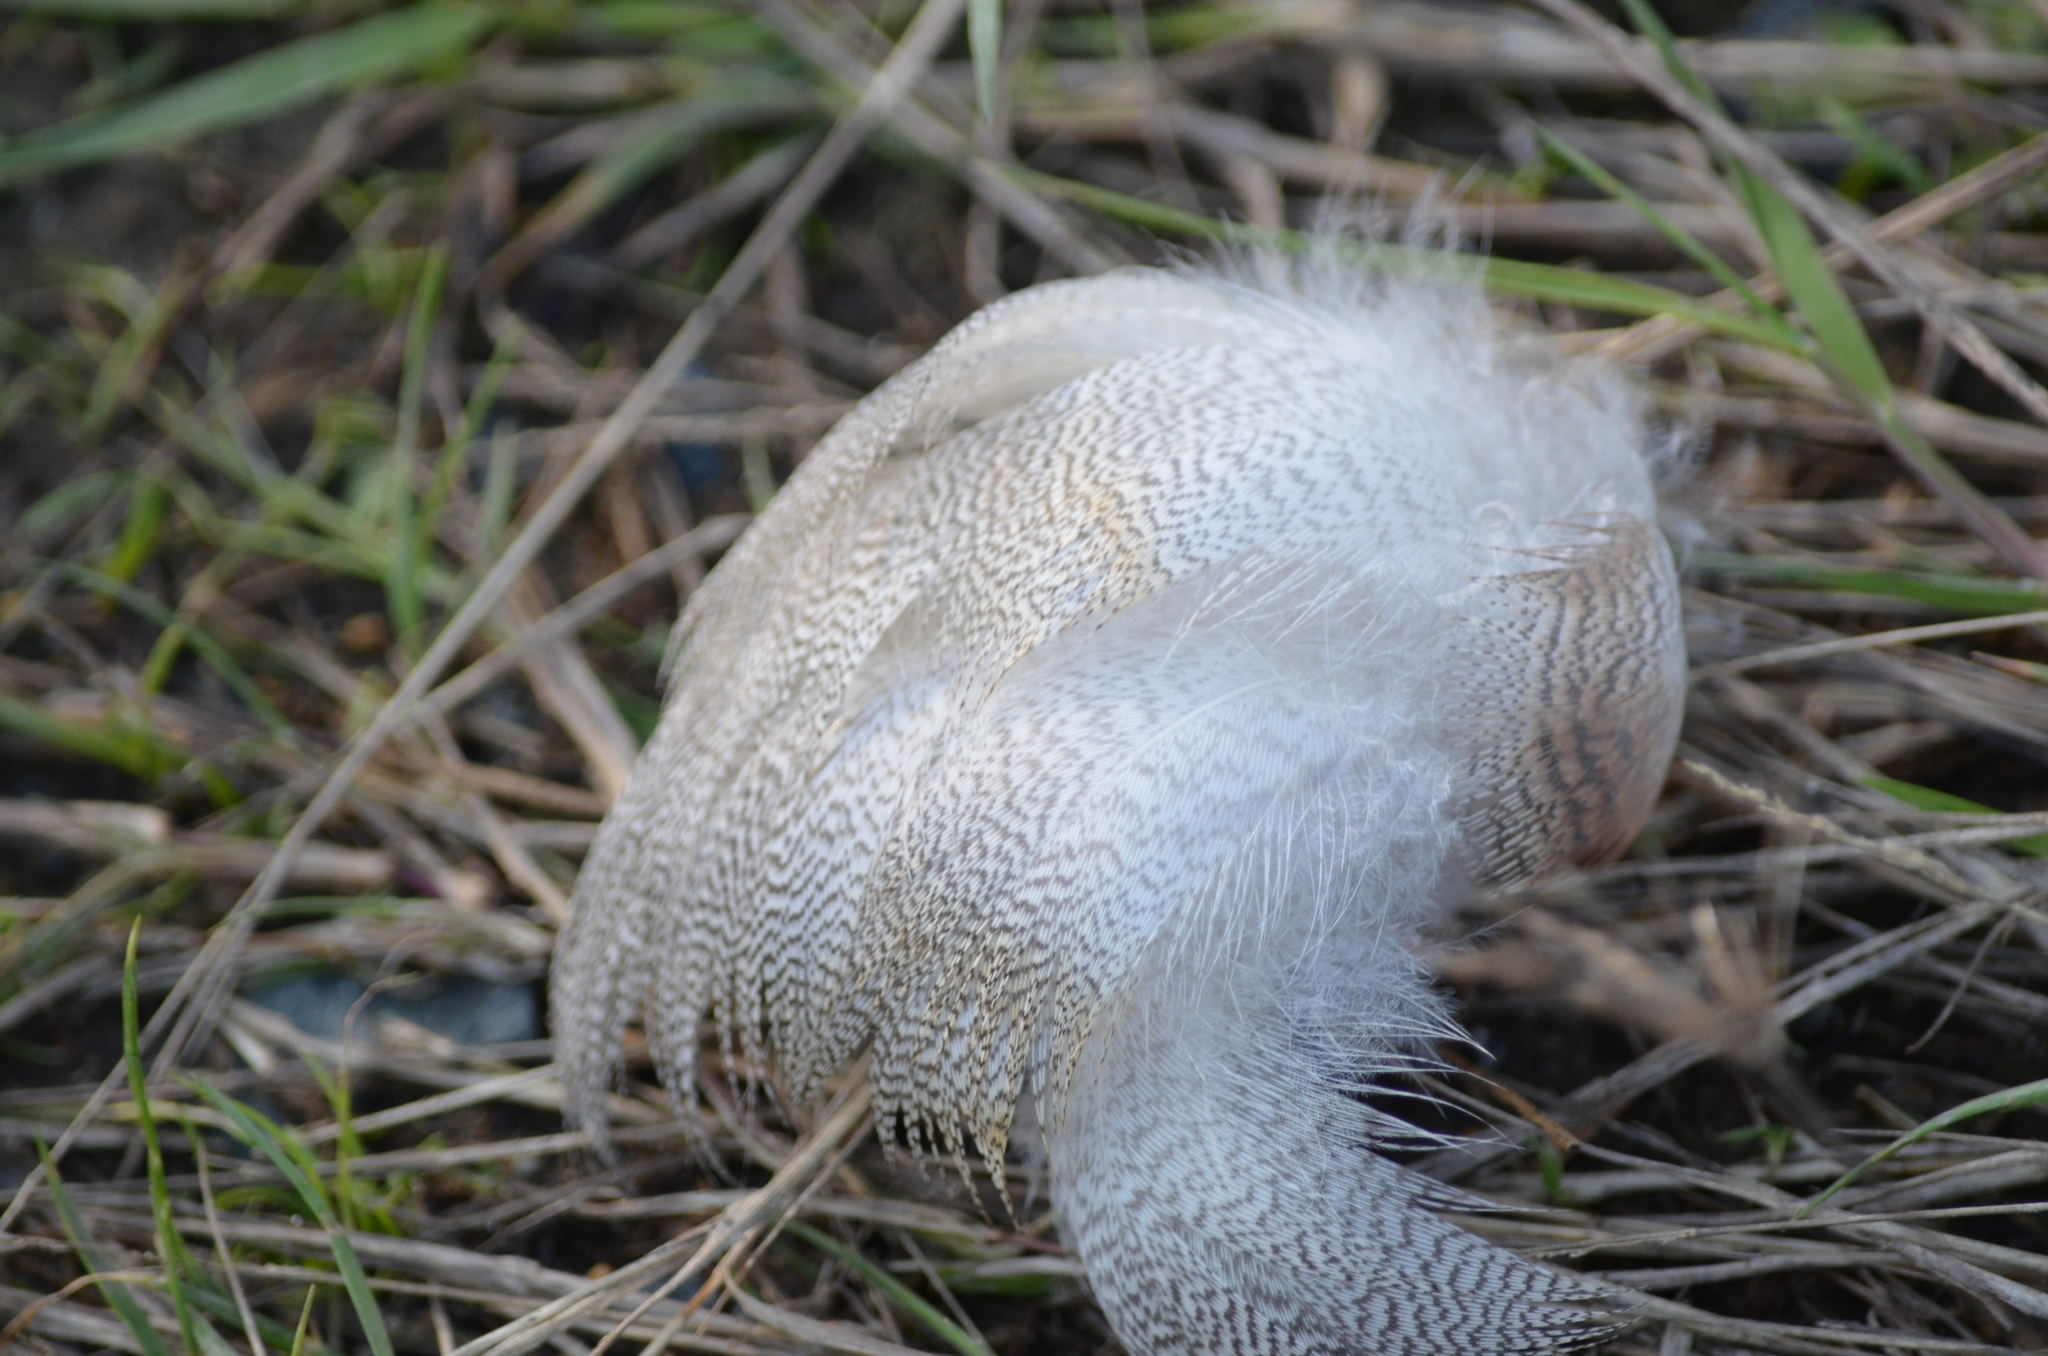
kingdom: Animalia
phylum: Chordata
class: Aves
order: Anseriformes
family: Anatidae
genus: Anas
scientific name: Anas platyrhynchos
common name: Mallard
